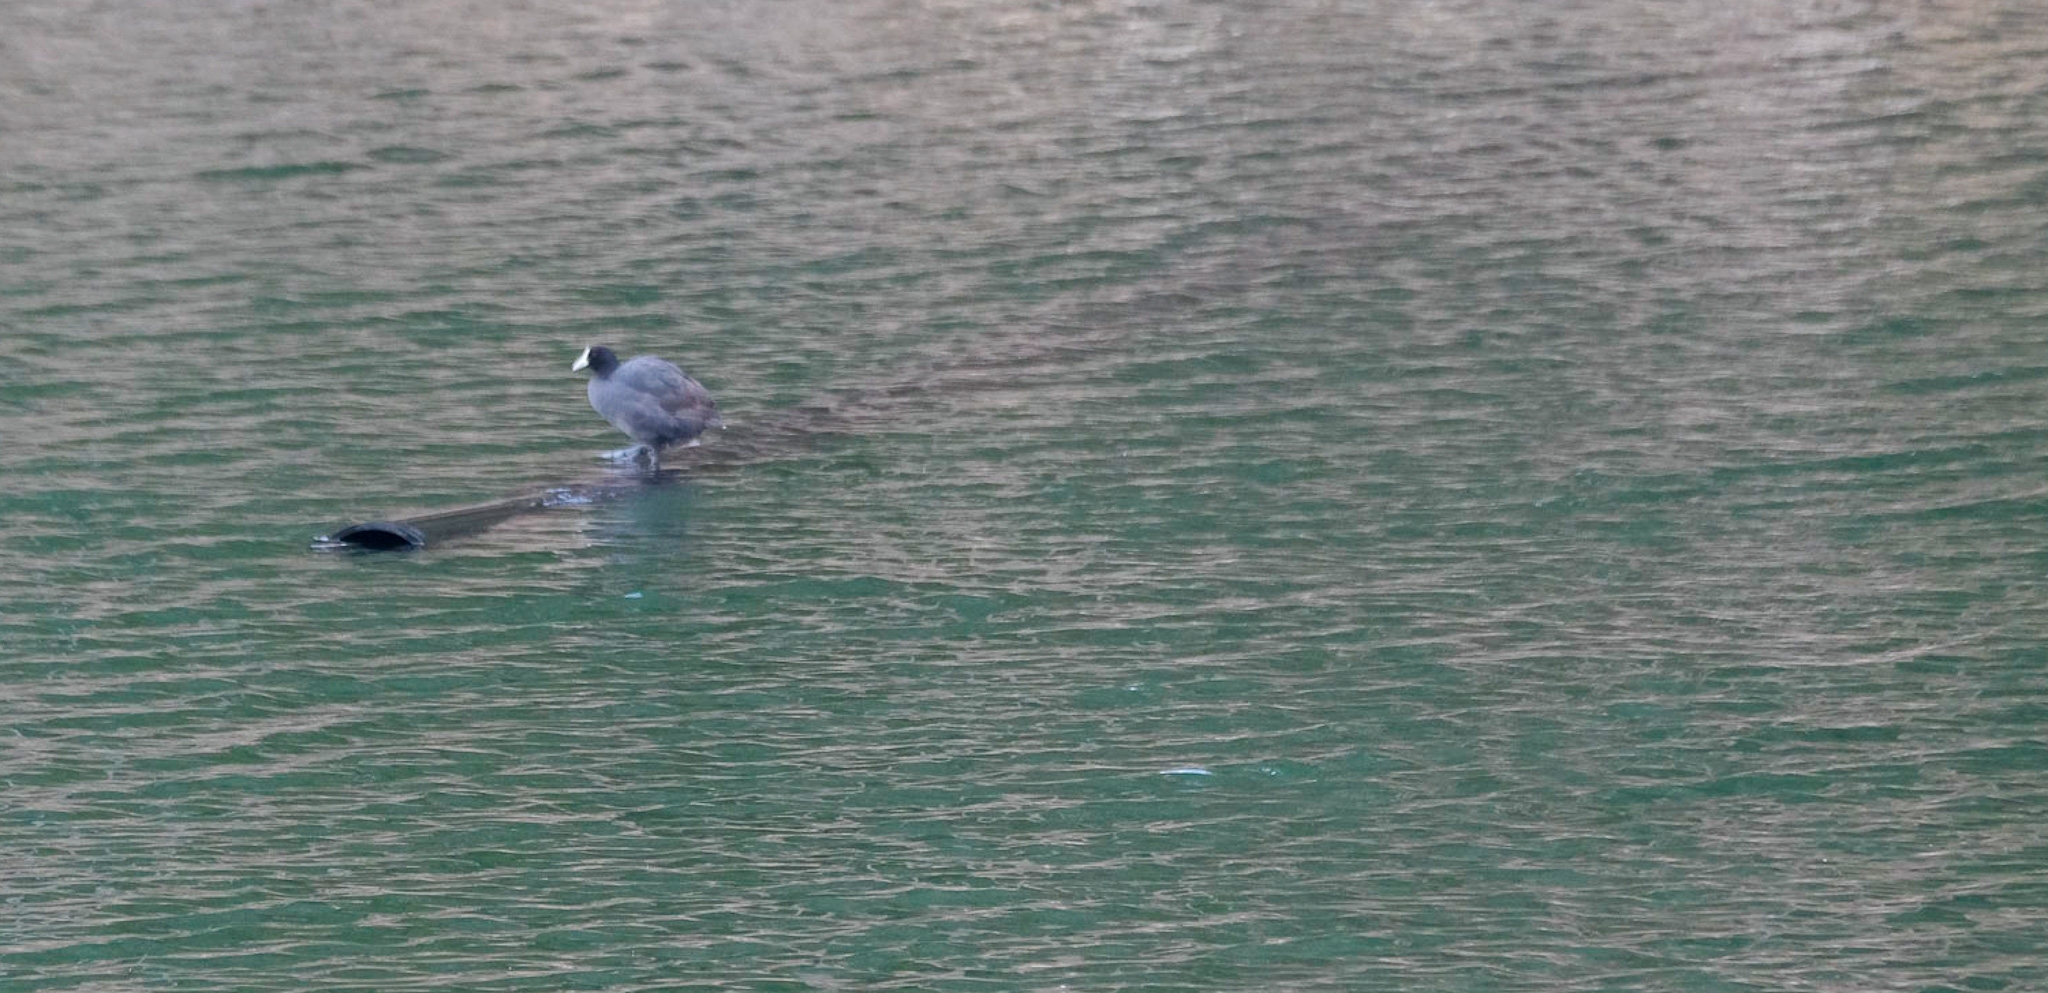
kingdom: Animalia
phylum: Chordata
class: Aves
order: Gruiformes
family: Rallidae
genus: Fulica
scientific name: Fulica atra
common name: Eurasian coot
